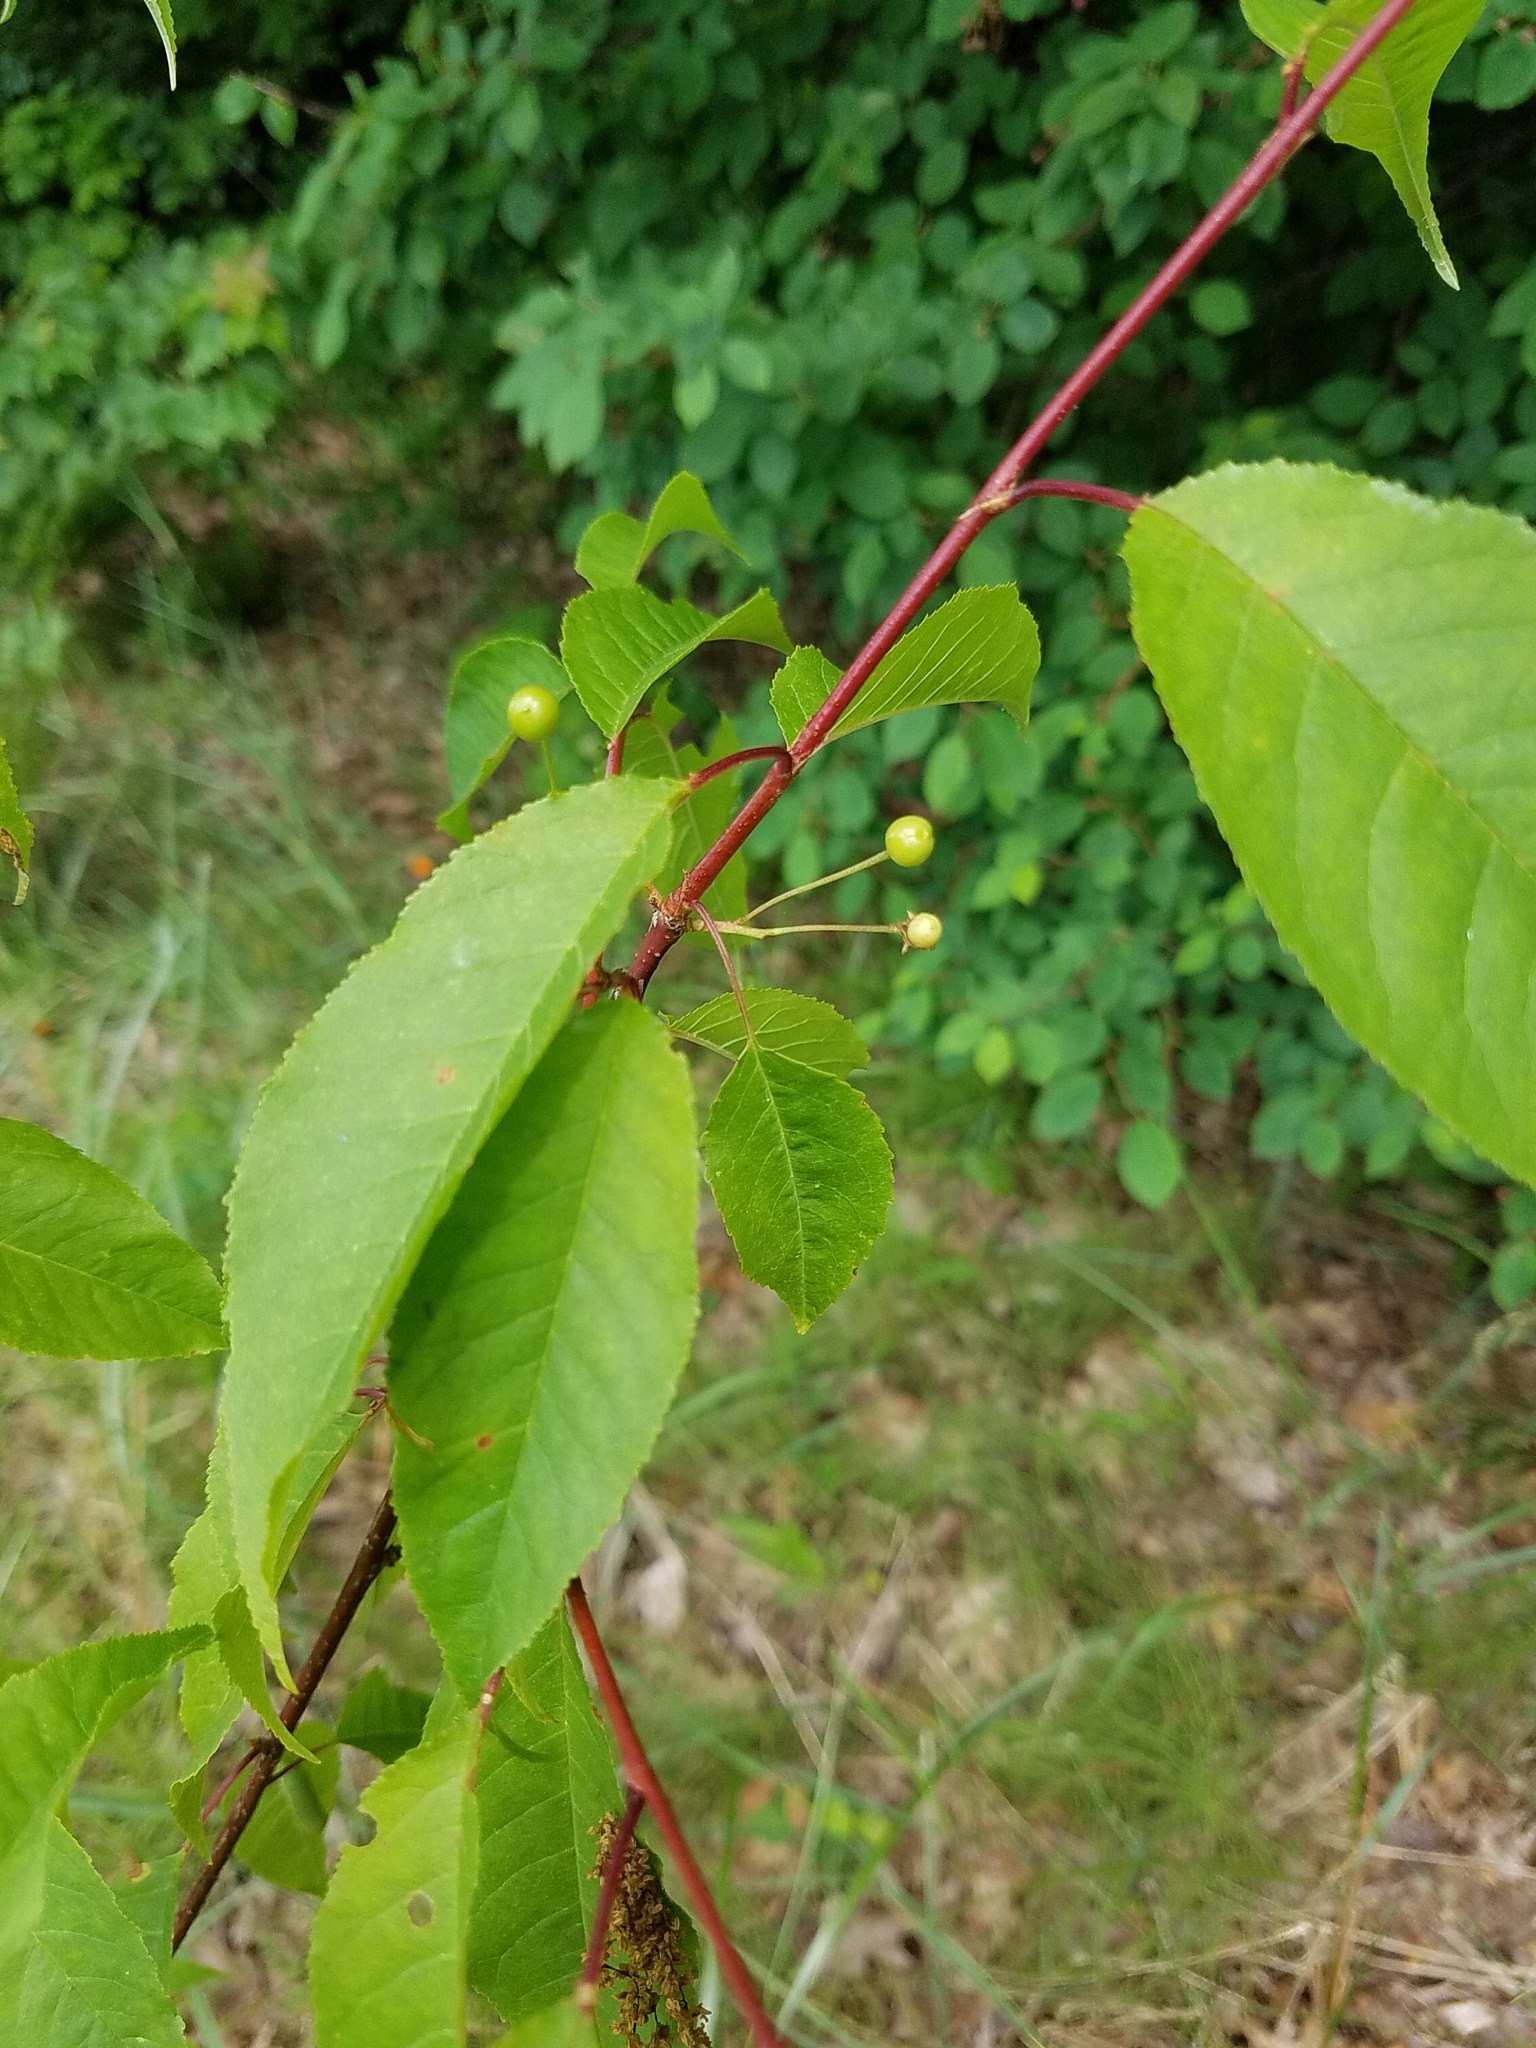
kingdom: Plantae
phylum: Tracheophyta
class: Magnoliopsida
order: Rosales
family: Rosaceae
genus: Prunus
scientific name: Prunus pensylvanica
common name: Pin cherry
